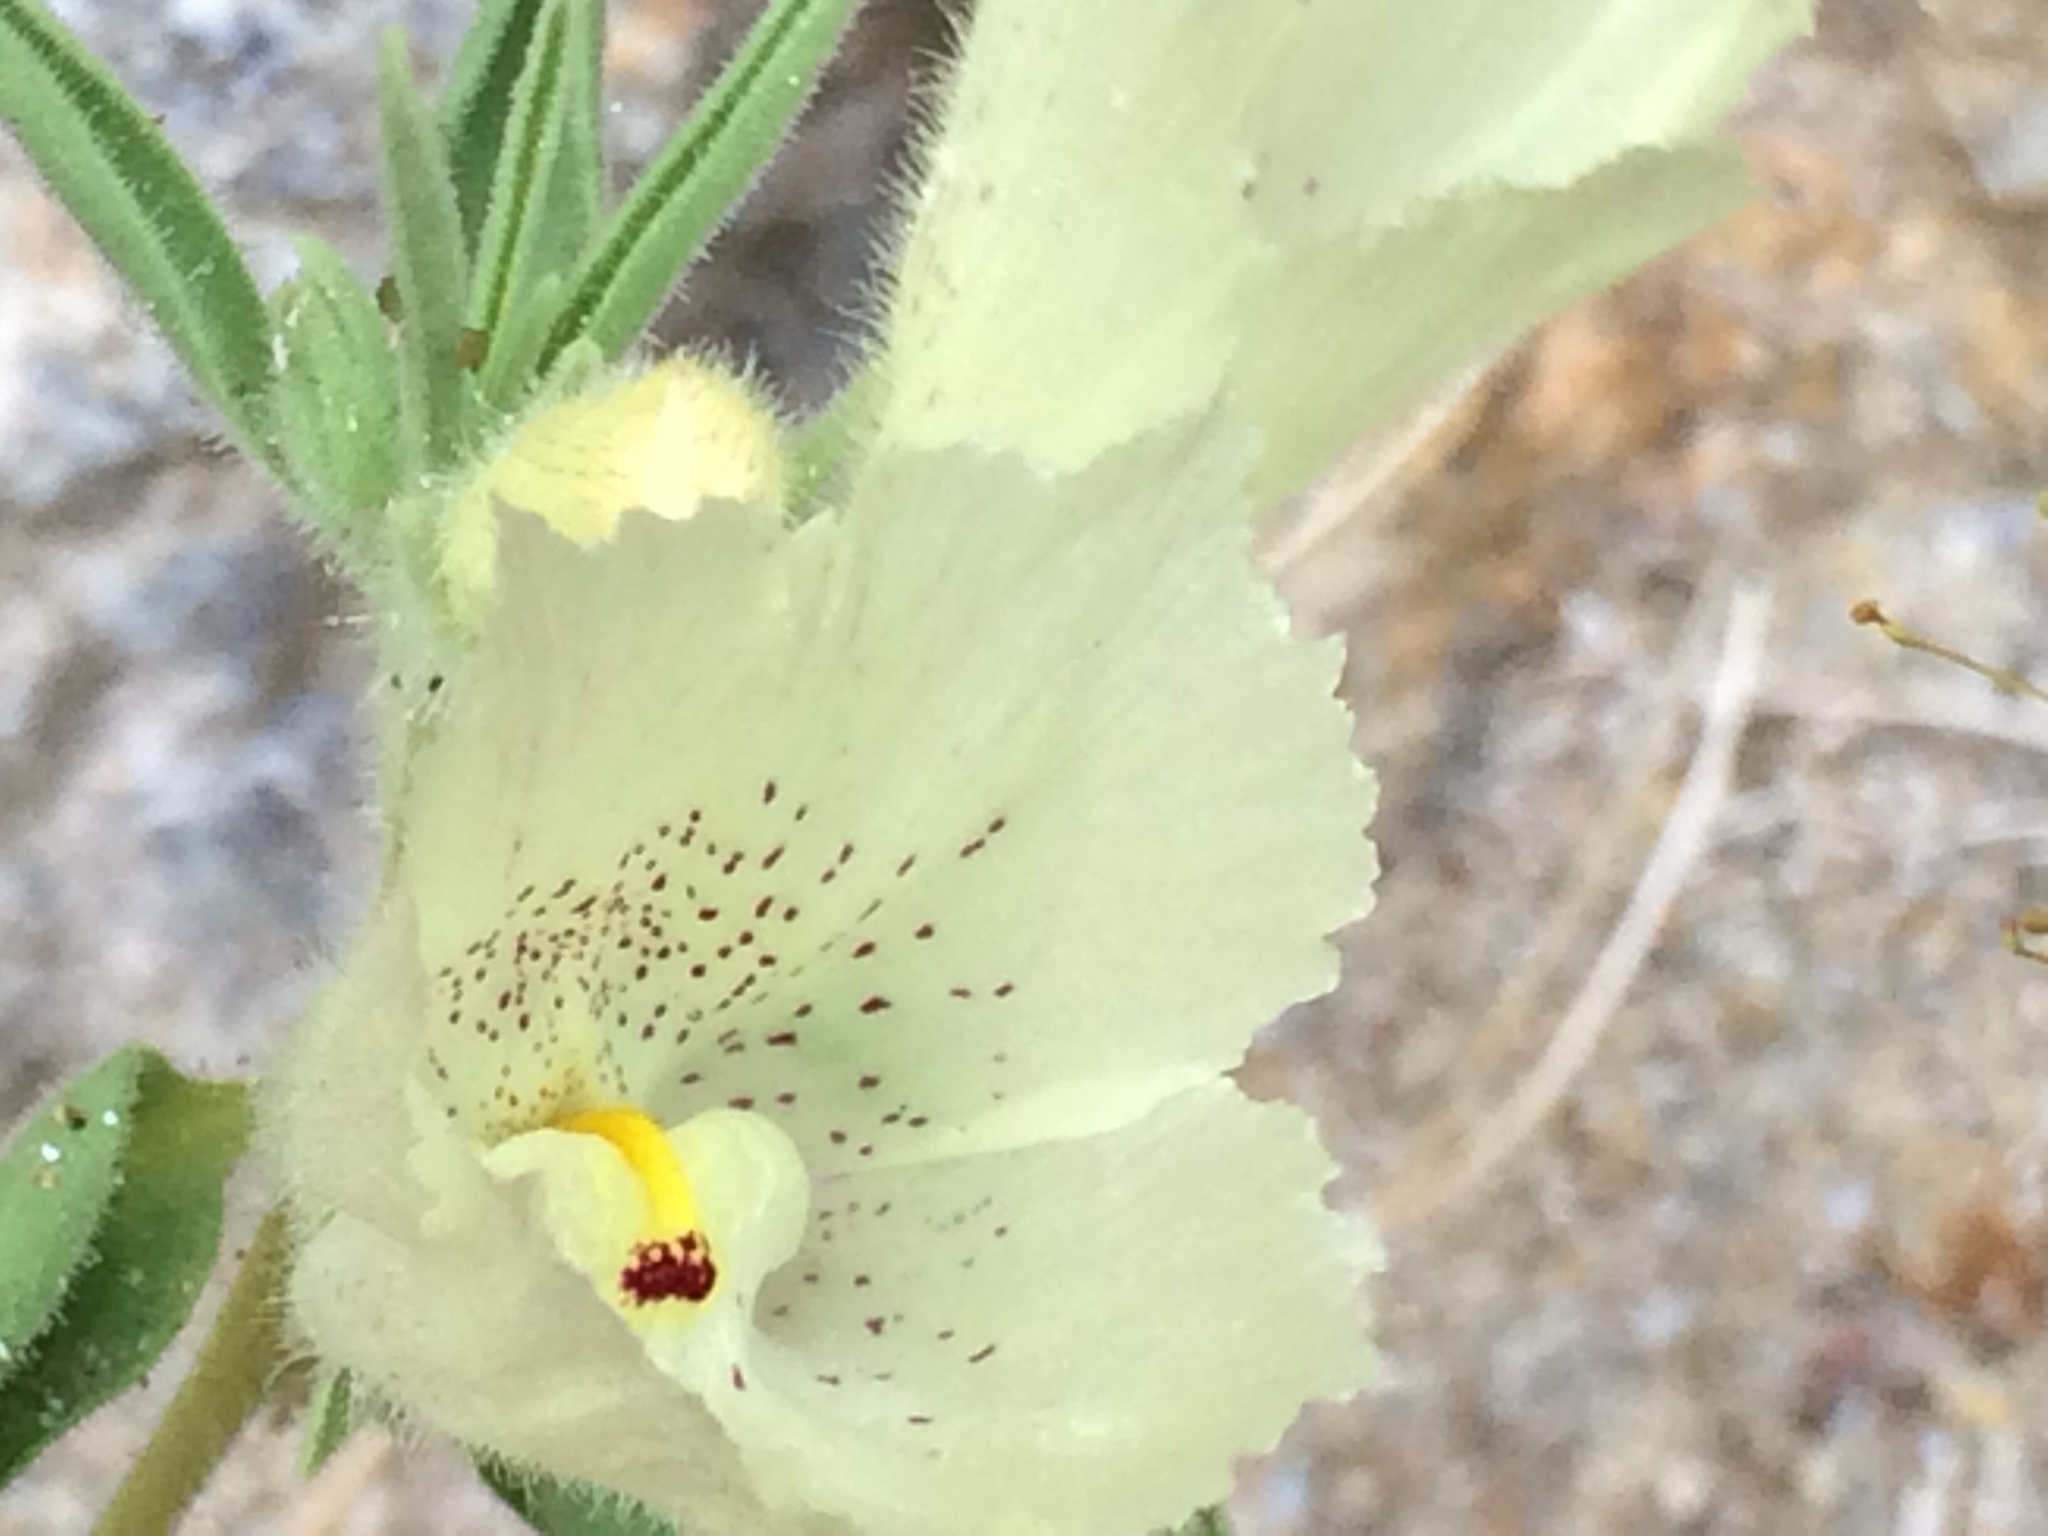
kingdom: Plantae
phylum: Tracheophyta
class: Magnoliopsida
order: Lamiales
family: Plantaginaceae
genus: Mohavea
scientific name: Mohavea confertiflora
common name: Ghost flower
